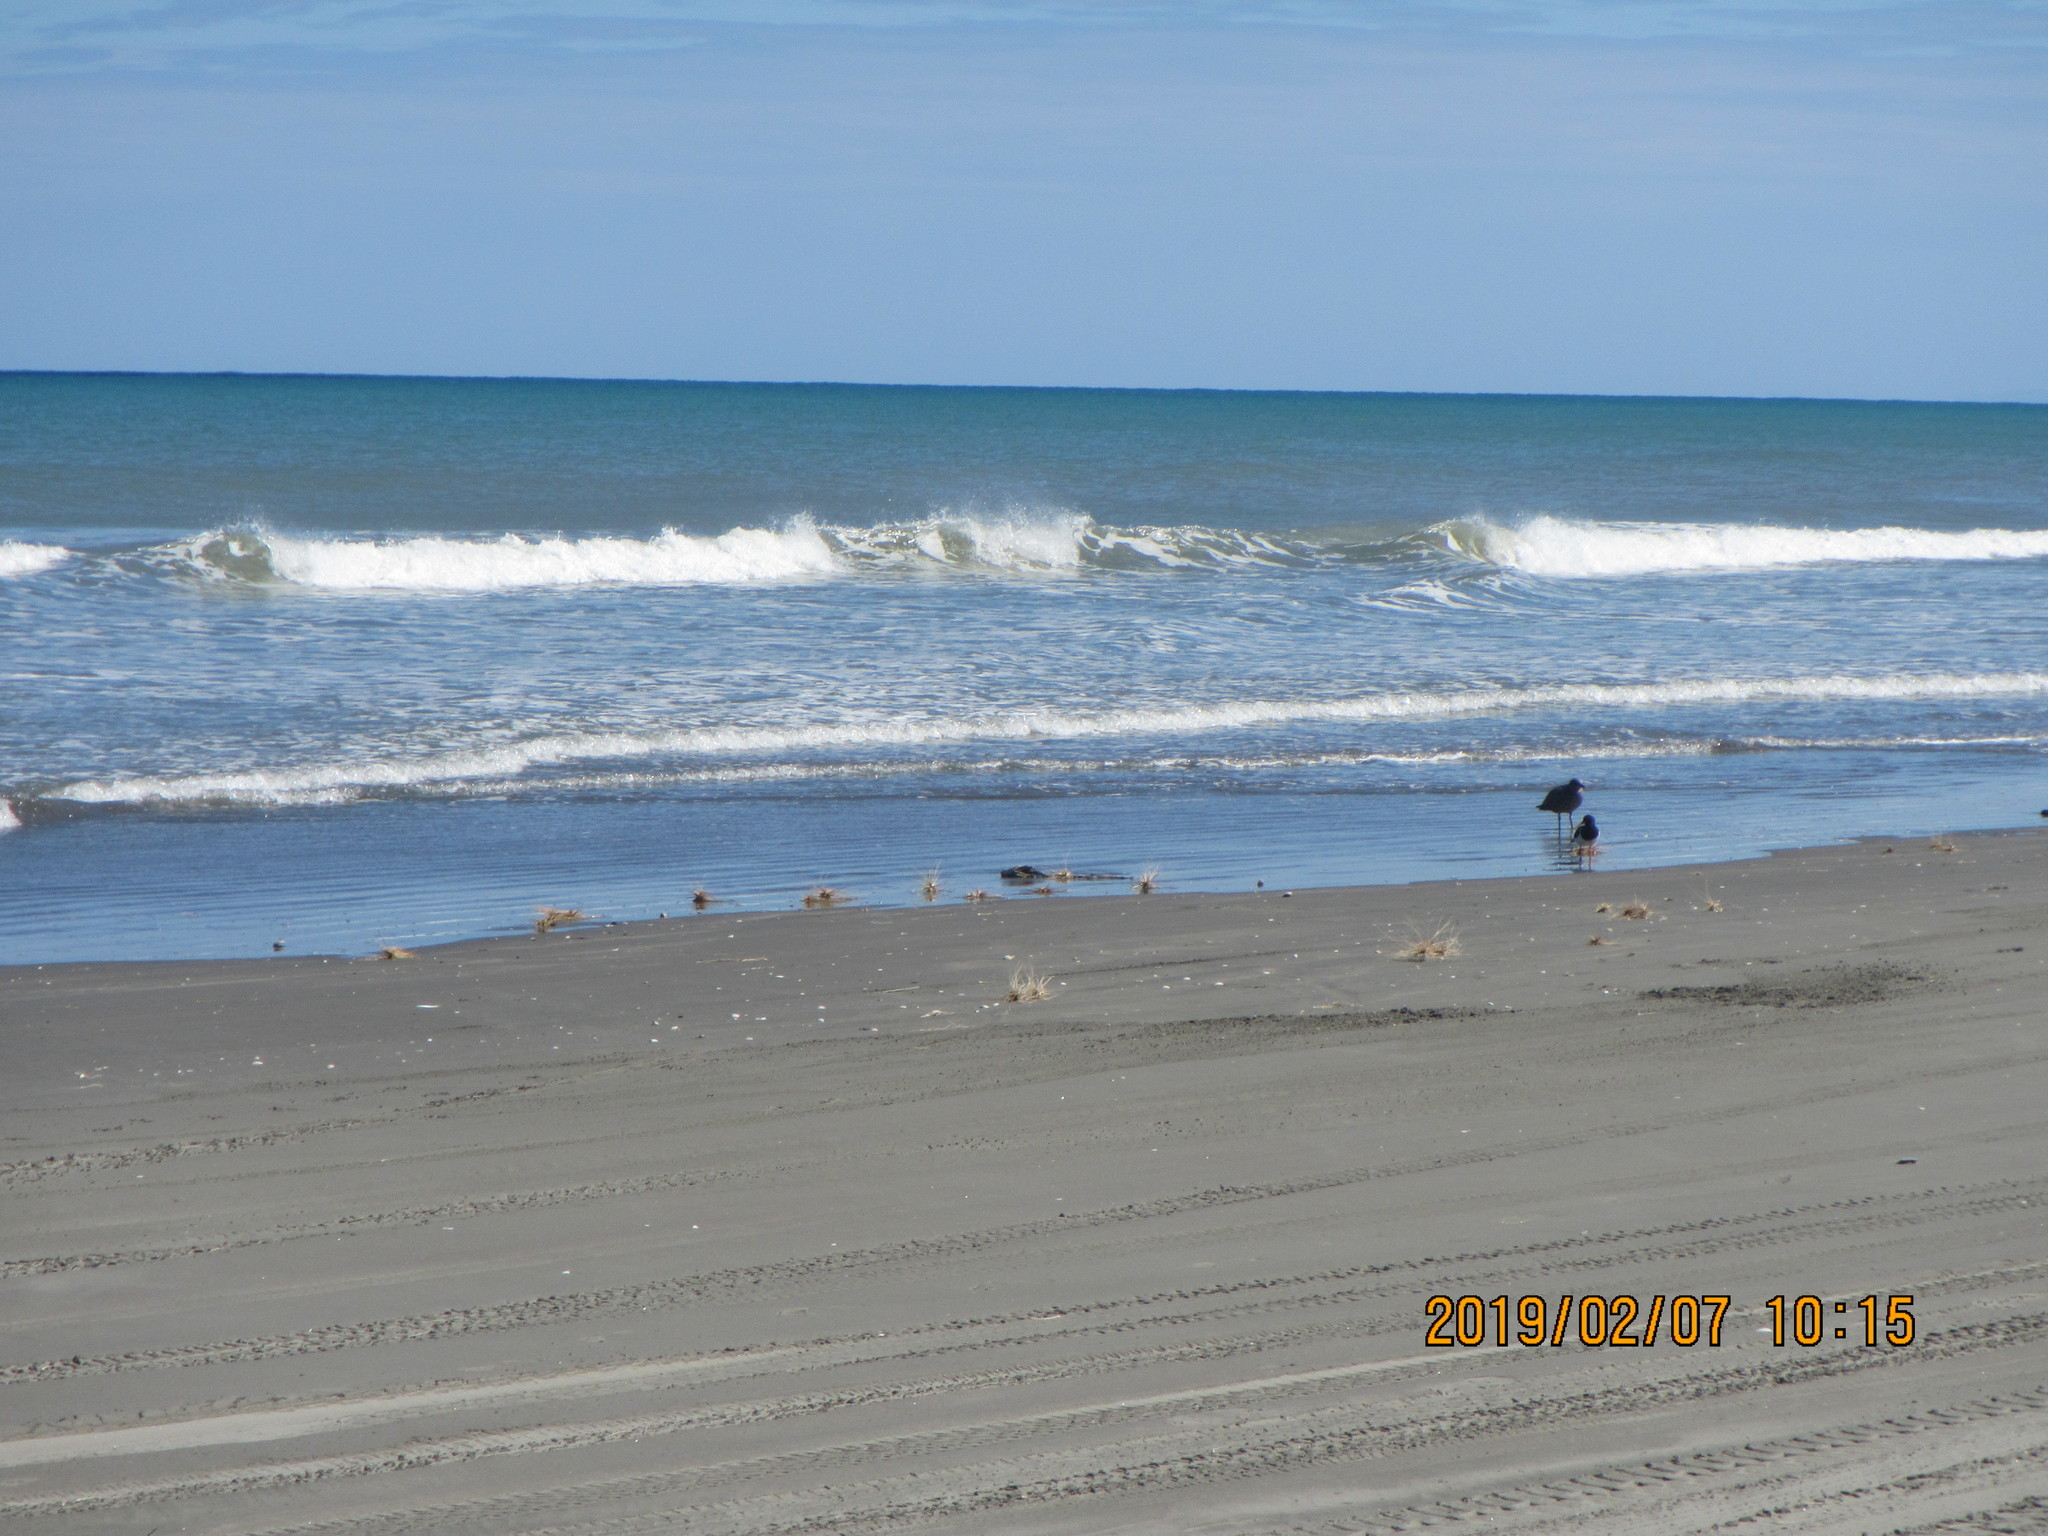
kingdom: Animalia
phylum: Chordata
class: Aves
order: Charadriiformes
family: Haematopodidae
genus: Haematopus
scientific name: Haematopus finschi
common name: South island oystercatcher
